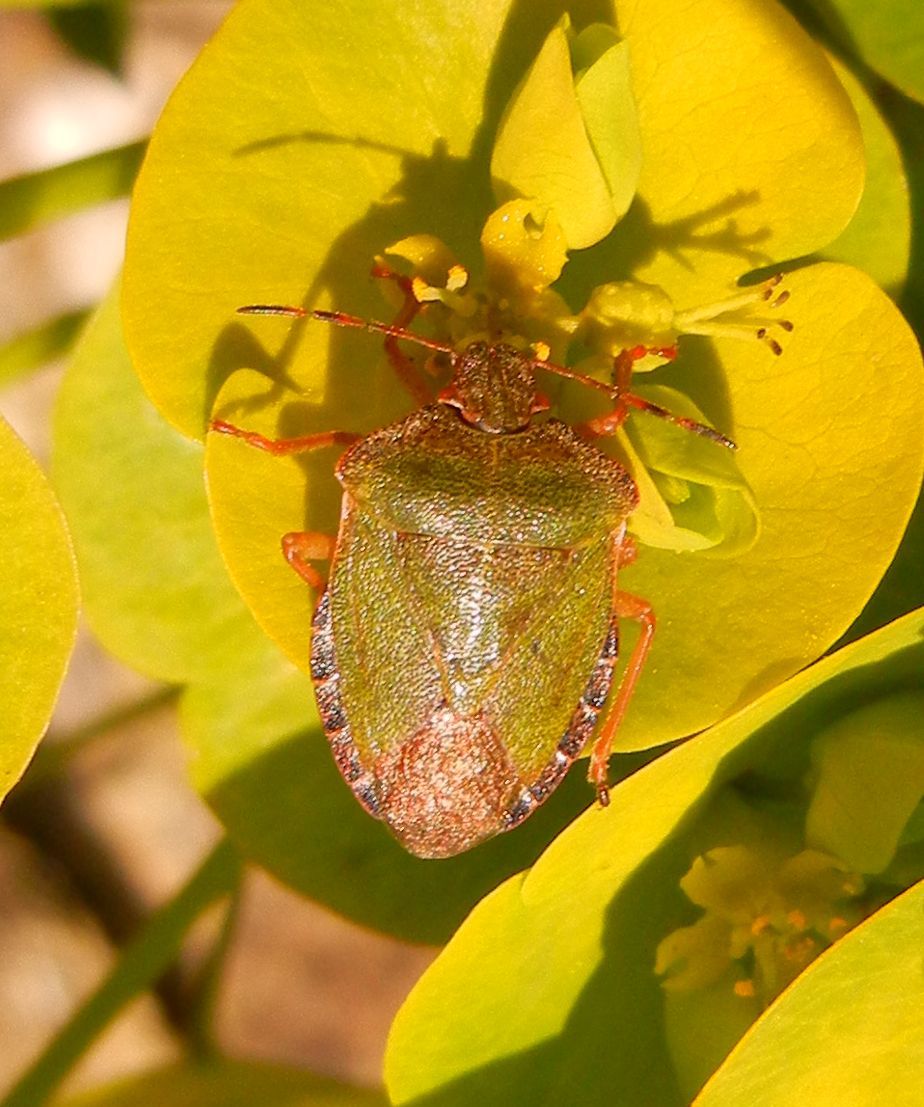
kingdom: Animalia
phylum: Arthropoda
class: Insecta
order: Hemiptera
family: Pentatomidae
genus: Palomena
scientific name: Palomena prasina
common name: Green shieldbug
